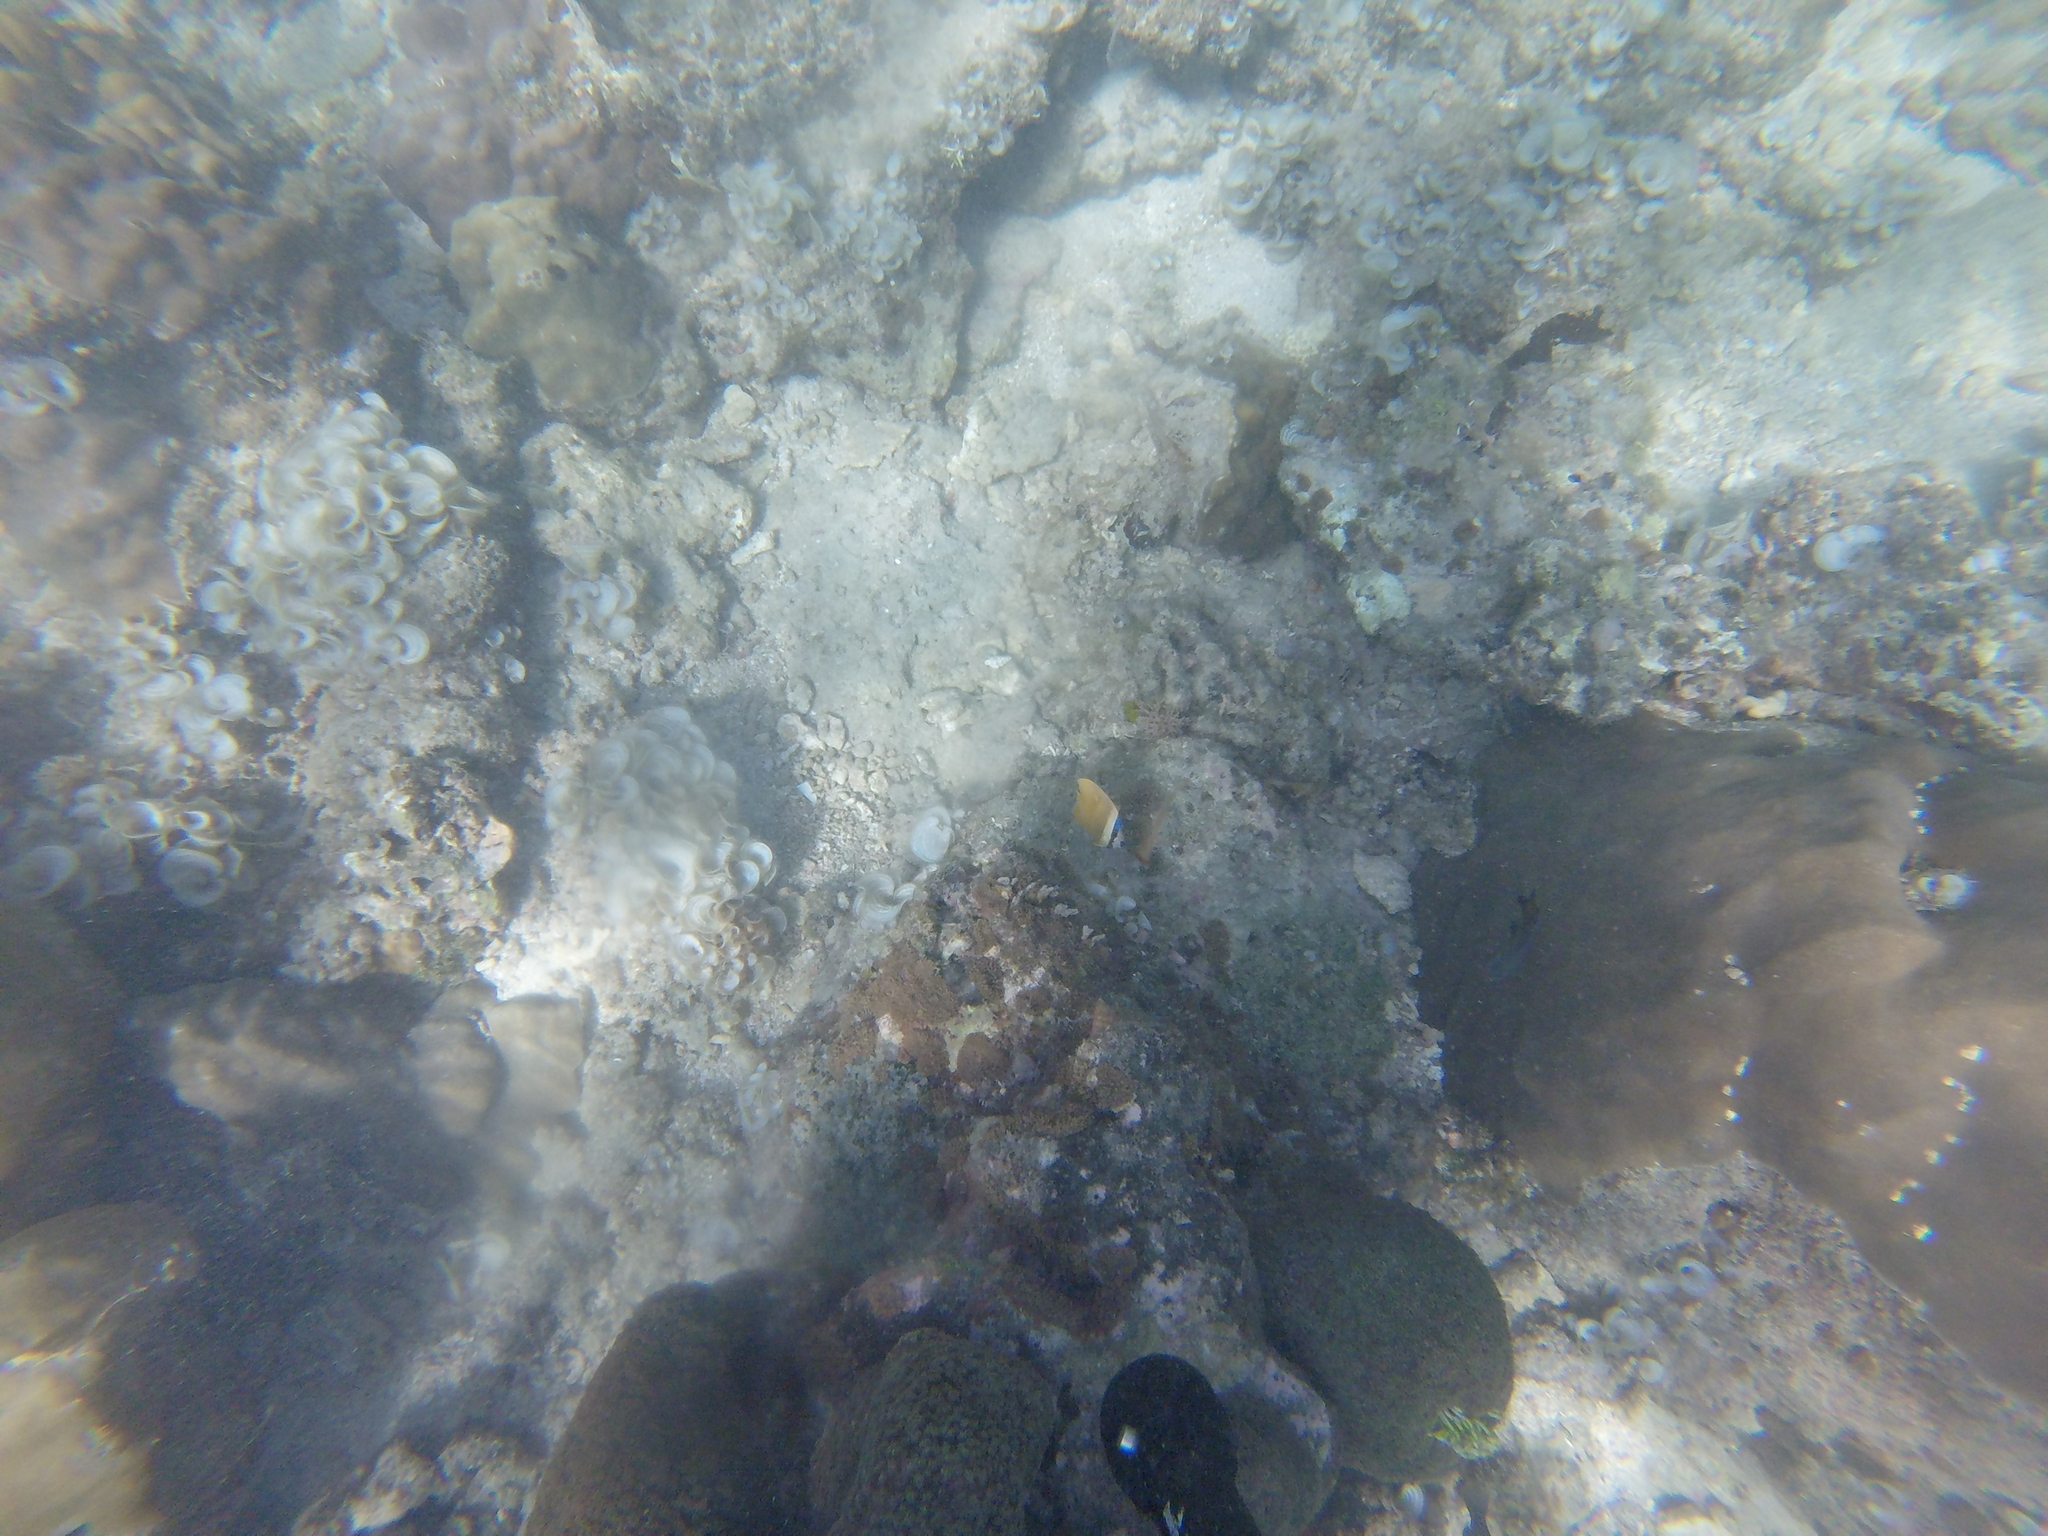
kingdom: Animalia
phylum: Chordata
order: Perciformes
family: Chaetodontidae
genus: Chaetodon
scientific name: Chaetodon kleinii
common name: Klein's butterflyfish
